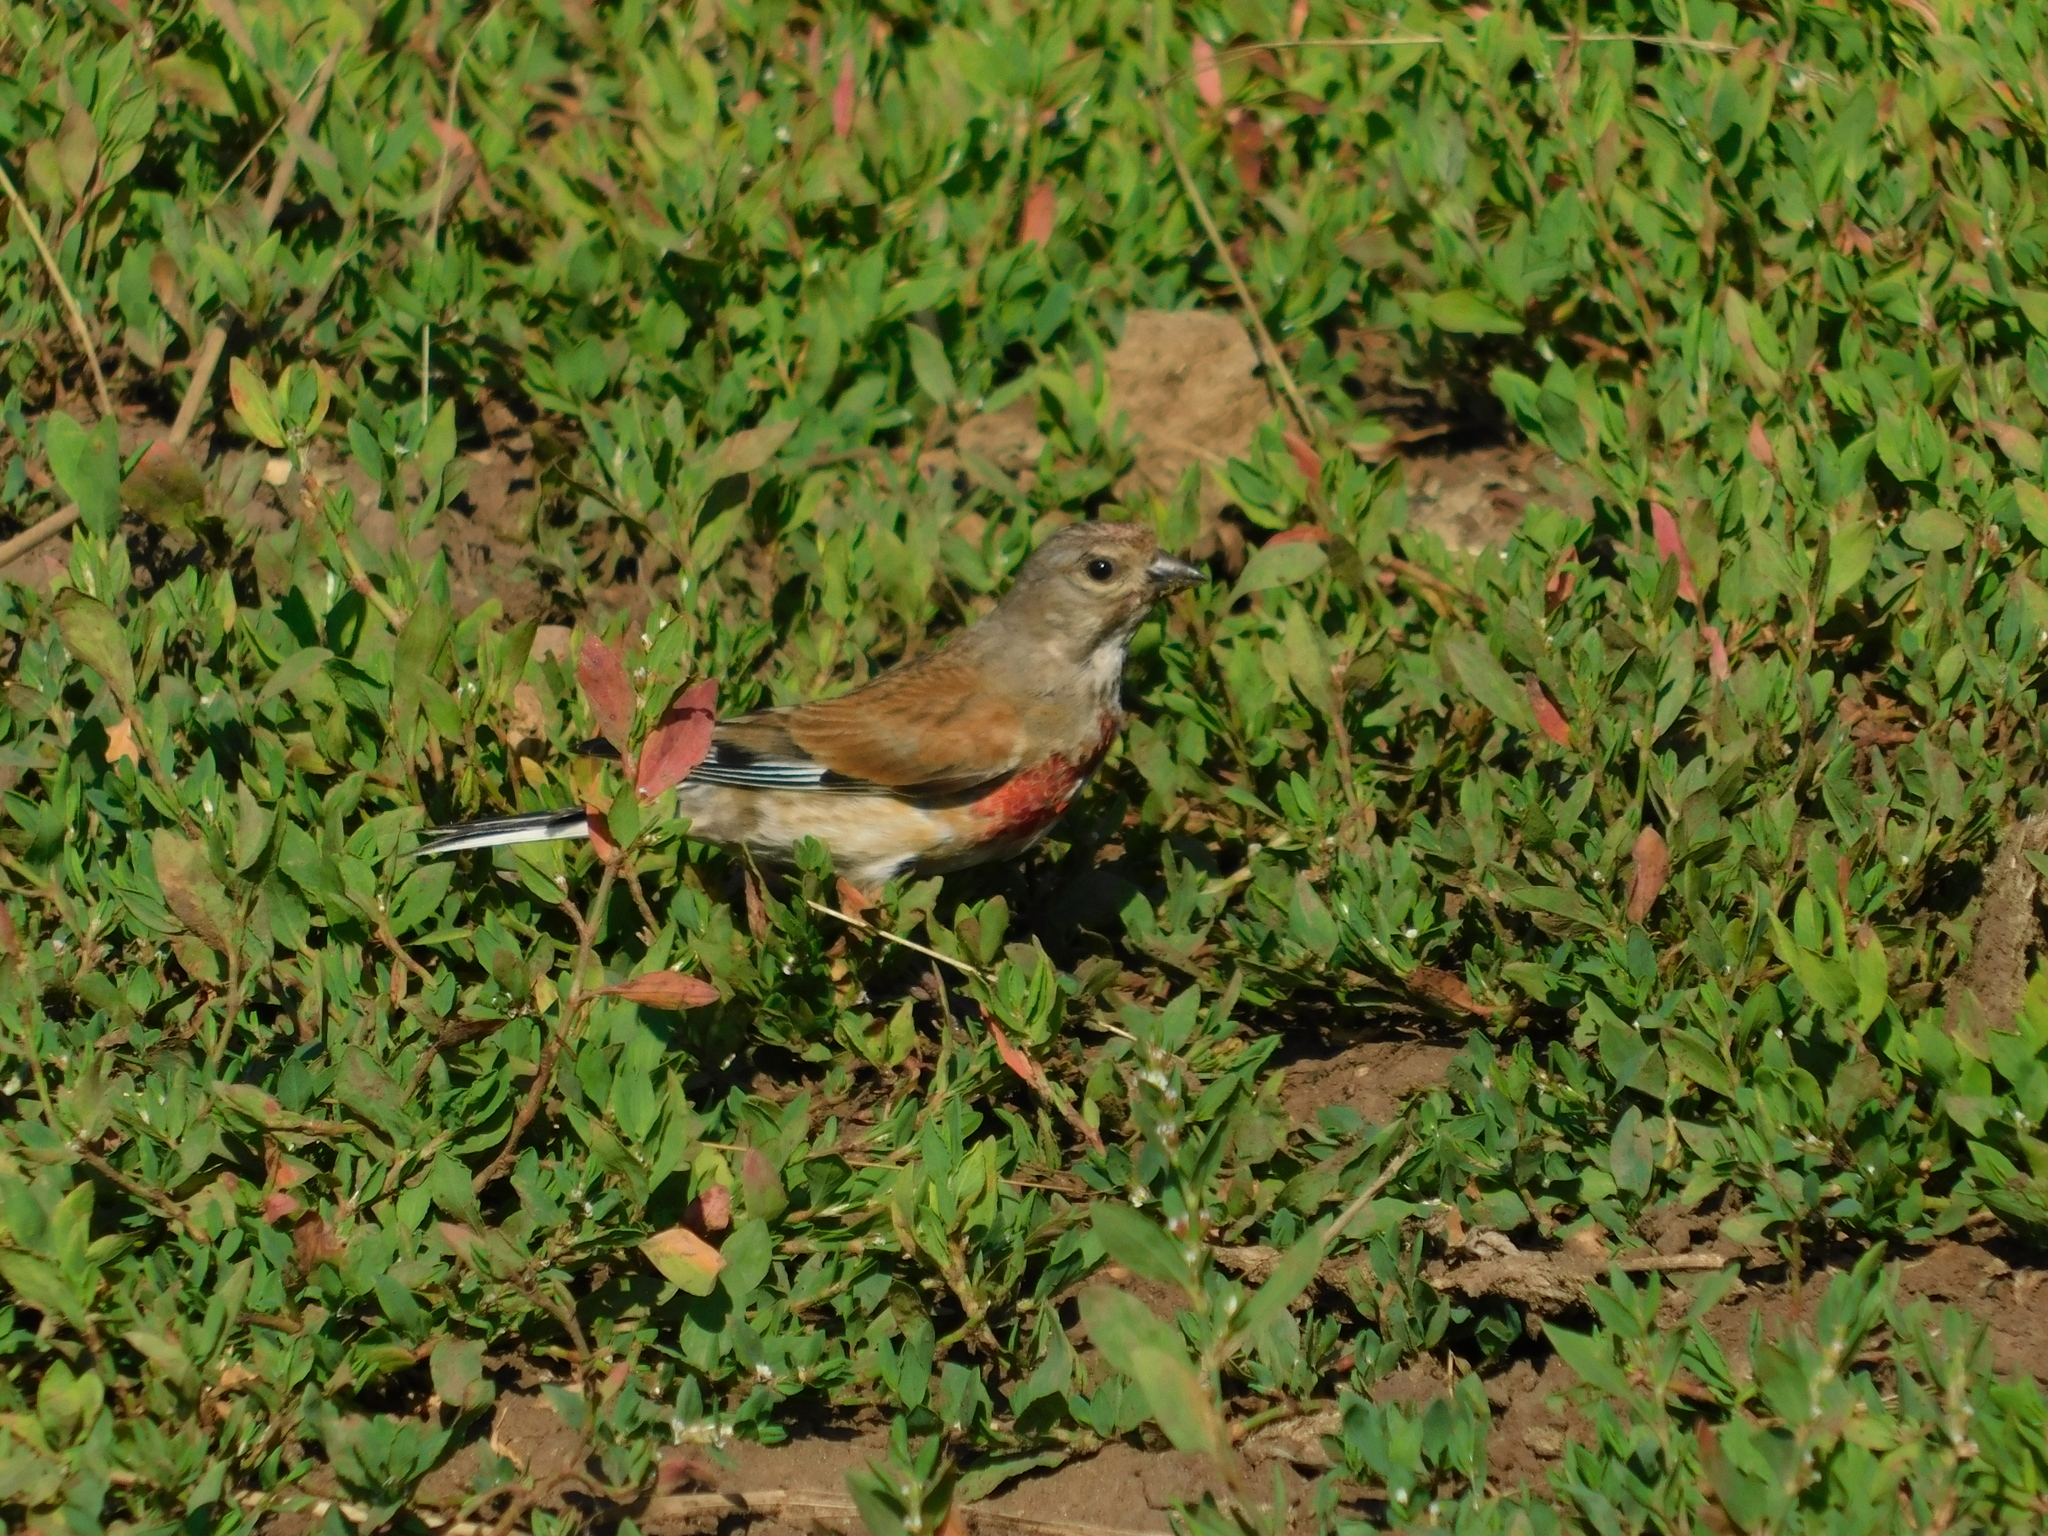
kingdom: Animalia
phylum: Chordata
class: Aves
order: Passeriformes
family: Fringillidae
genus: Linaria
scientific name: Linaria cannabina
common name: Common linnet
